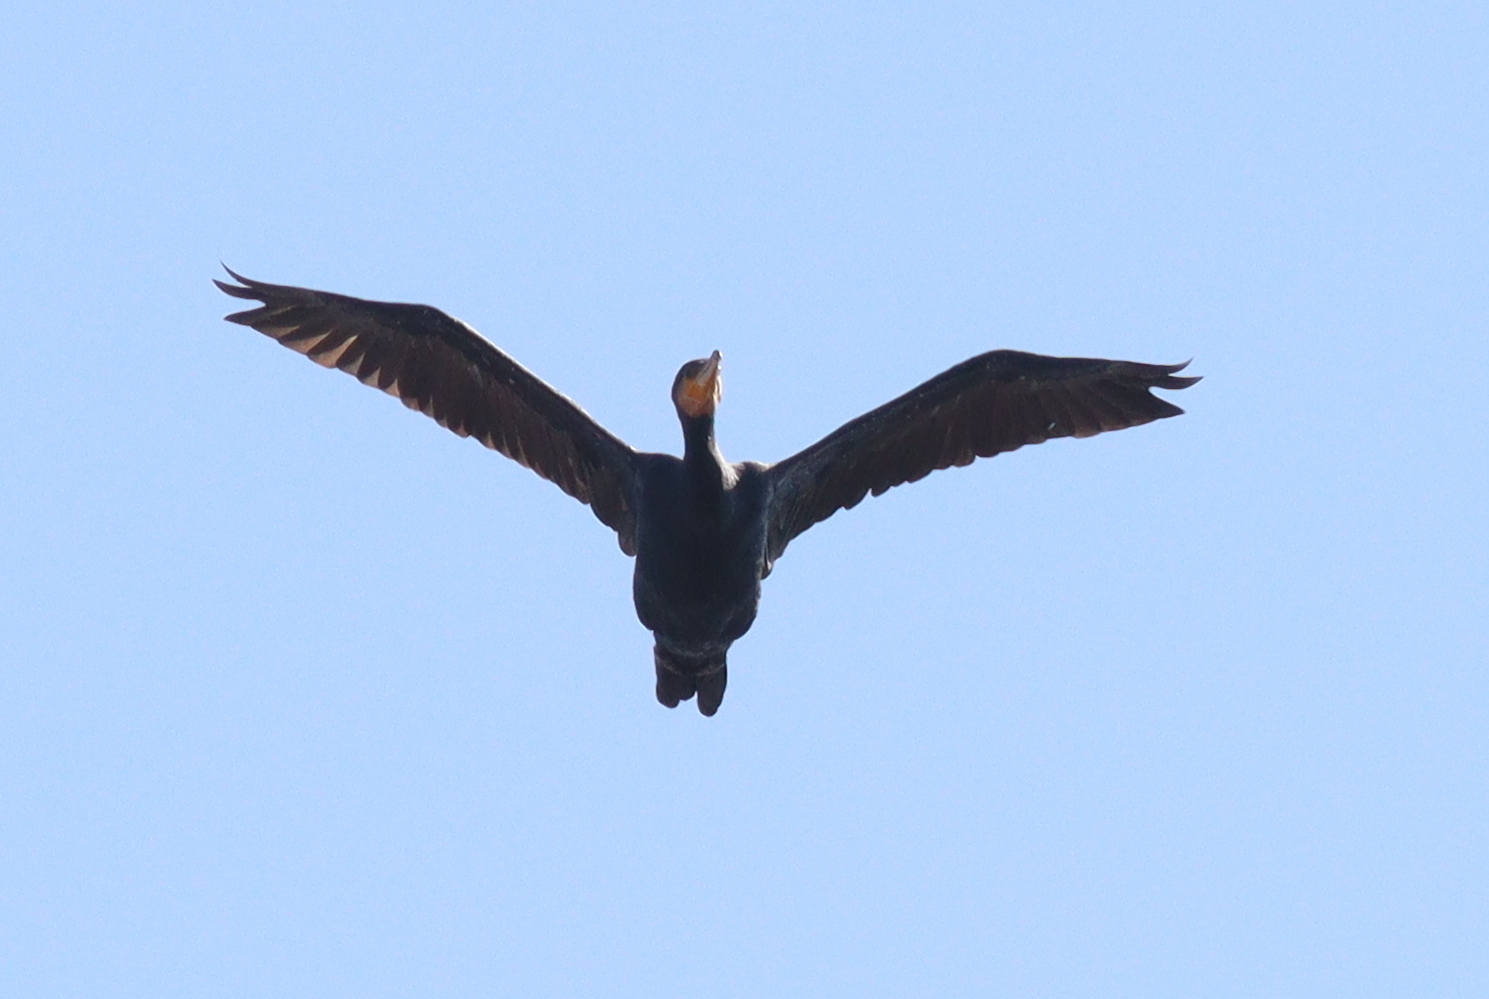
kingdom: Animalia
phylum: Chordata
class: Aves
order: Suliformes
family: Phalacrocoracidae
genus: Phalacrocorax
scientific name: Phalacrocorax carbo
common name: Great cormorant
